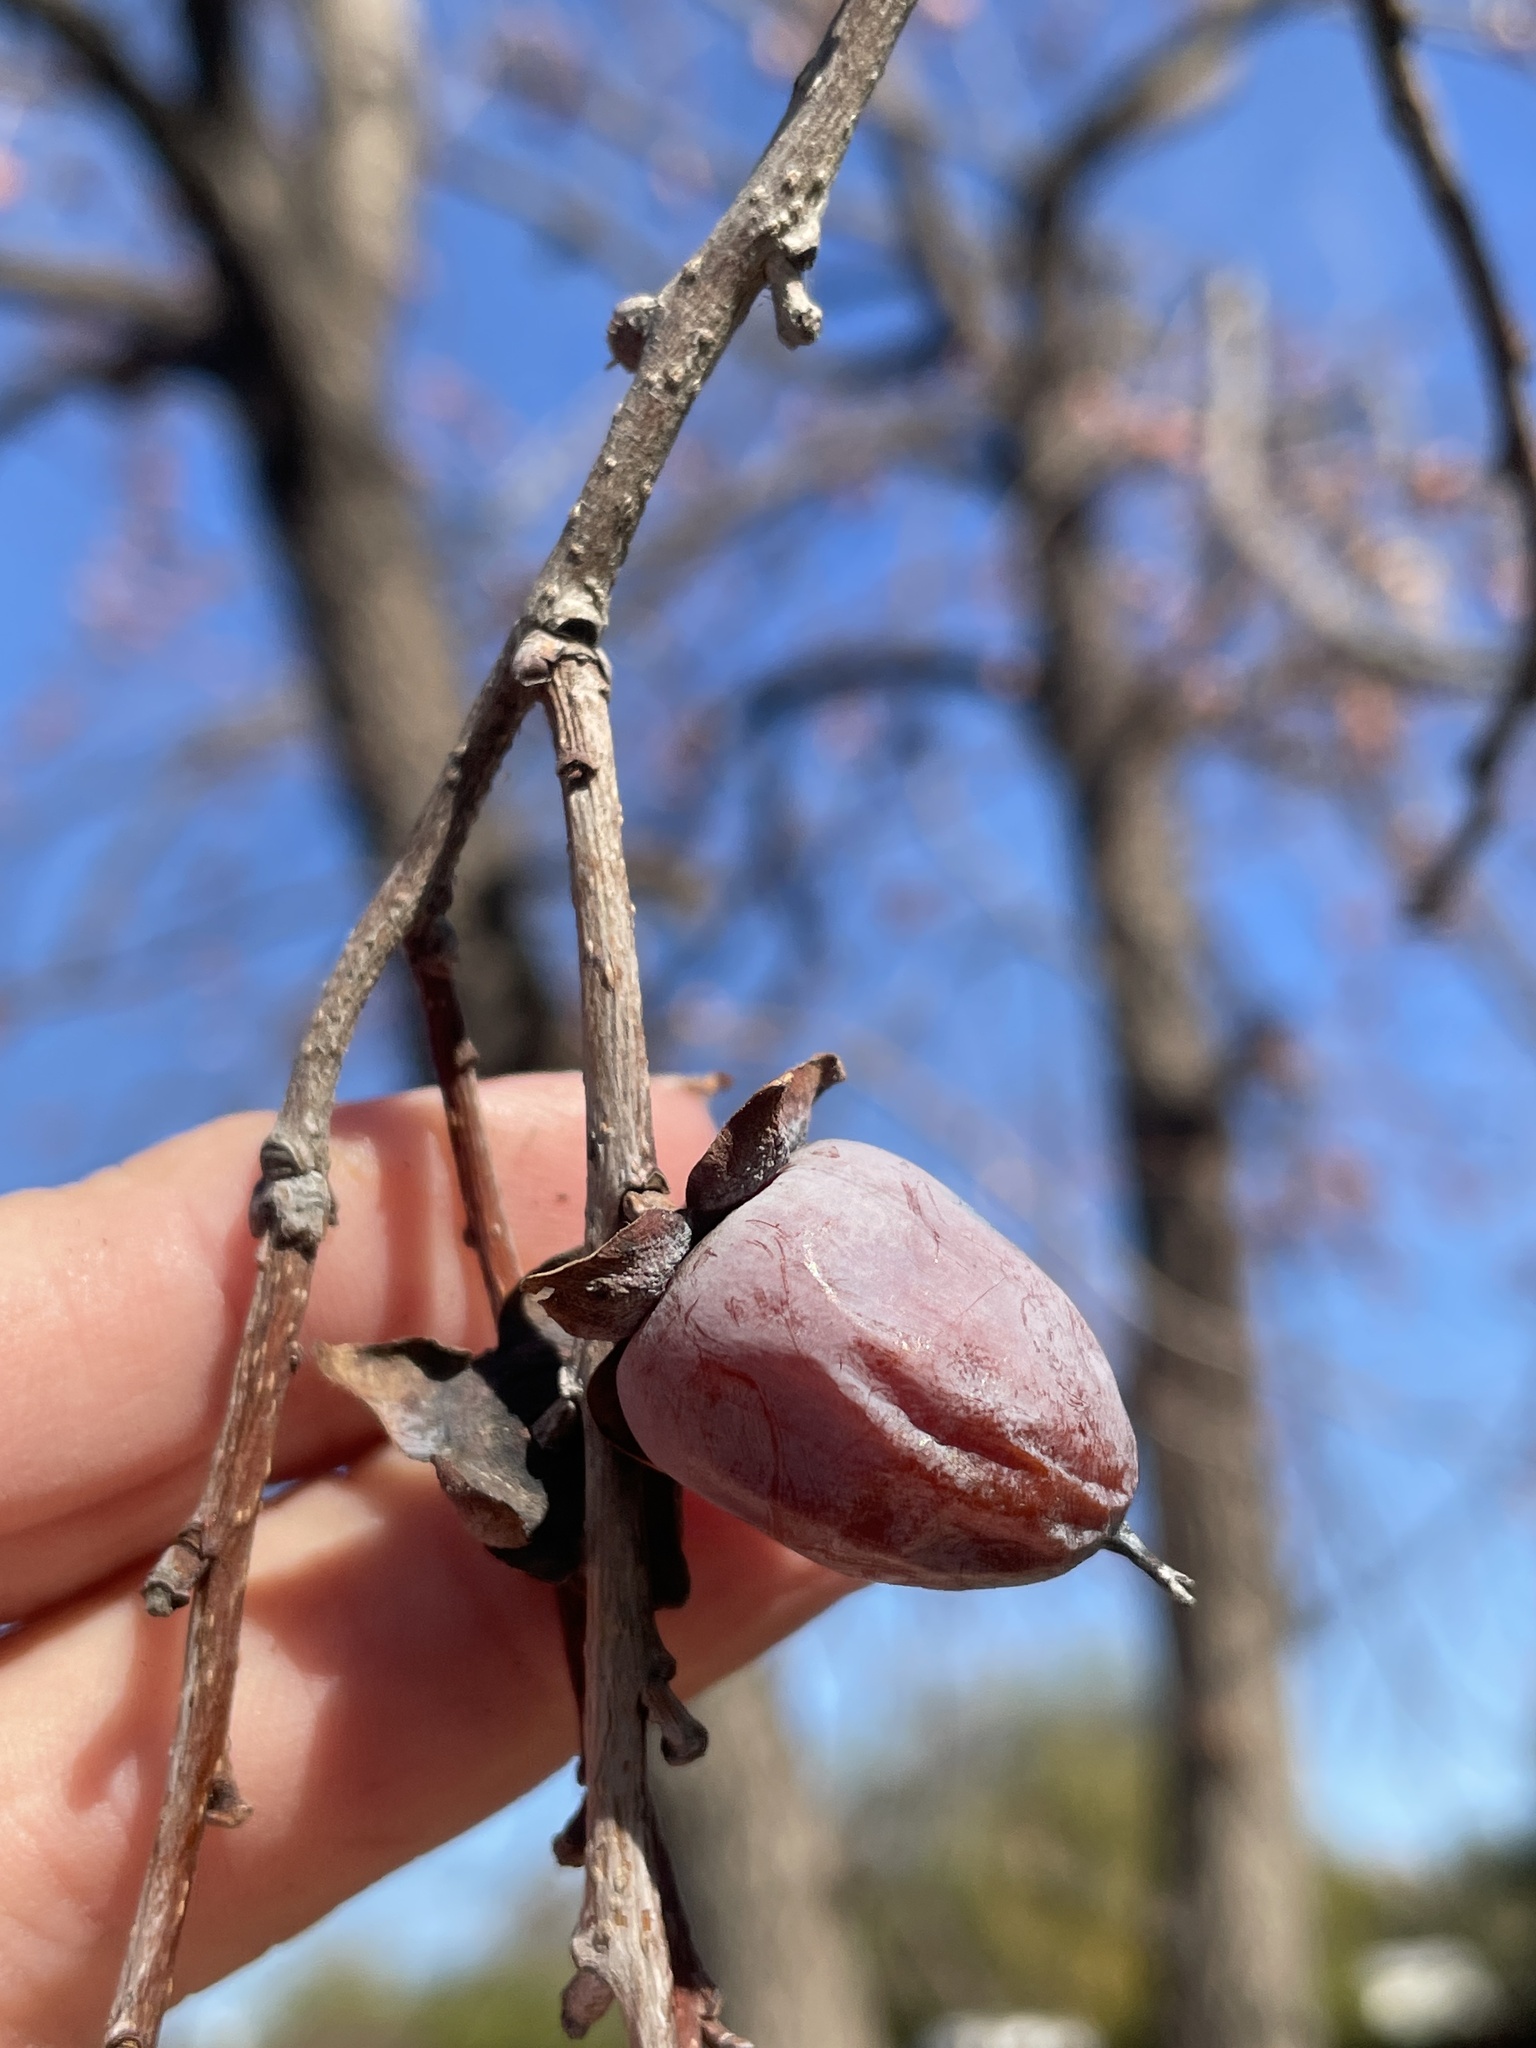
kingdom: Plantae
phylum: Tracheophyta
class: Magnoliopsida
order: Ericales
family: Ebenaceae
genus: Diospyros
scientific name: Diospyros virginiana
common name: Persimmon
